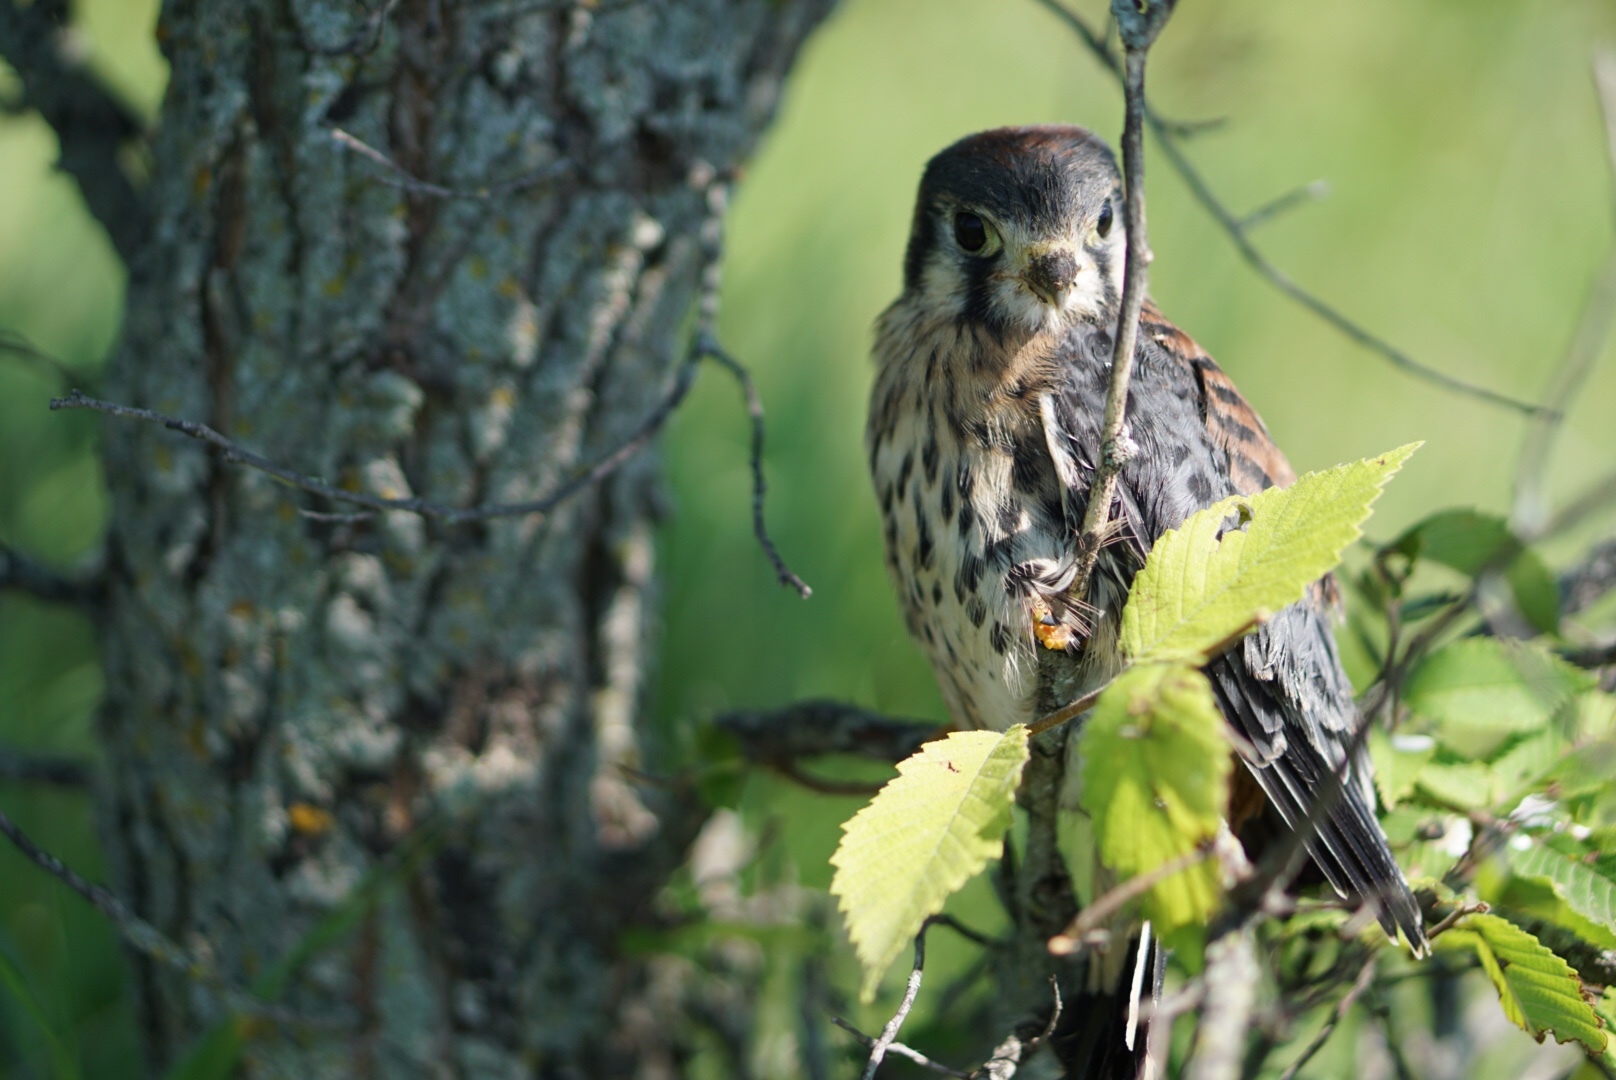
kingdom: Animalia
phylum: Chordata
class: Aves
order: Falconiformes
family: Falconidae
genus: Falco
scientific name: Falco sparverius
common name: American kestrel
